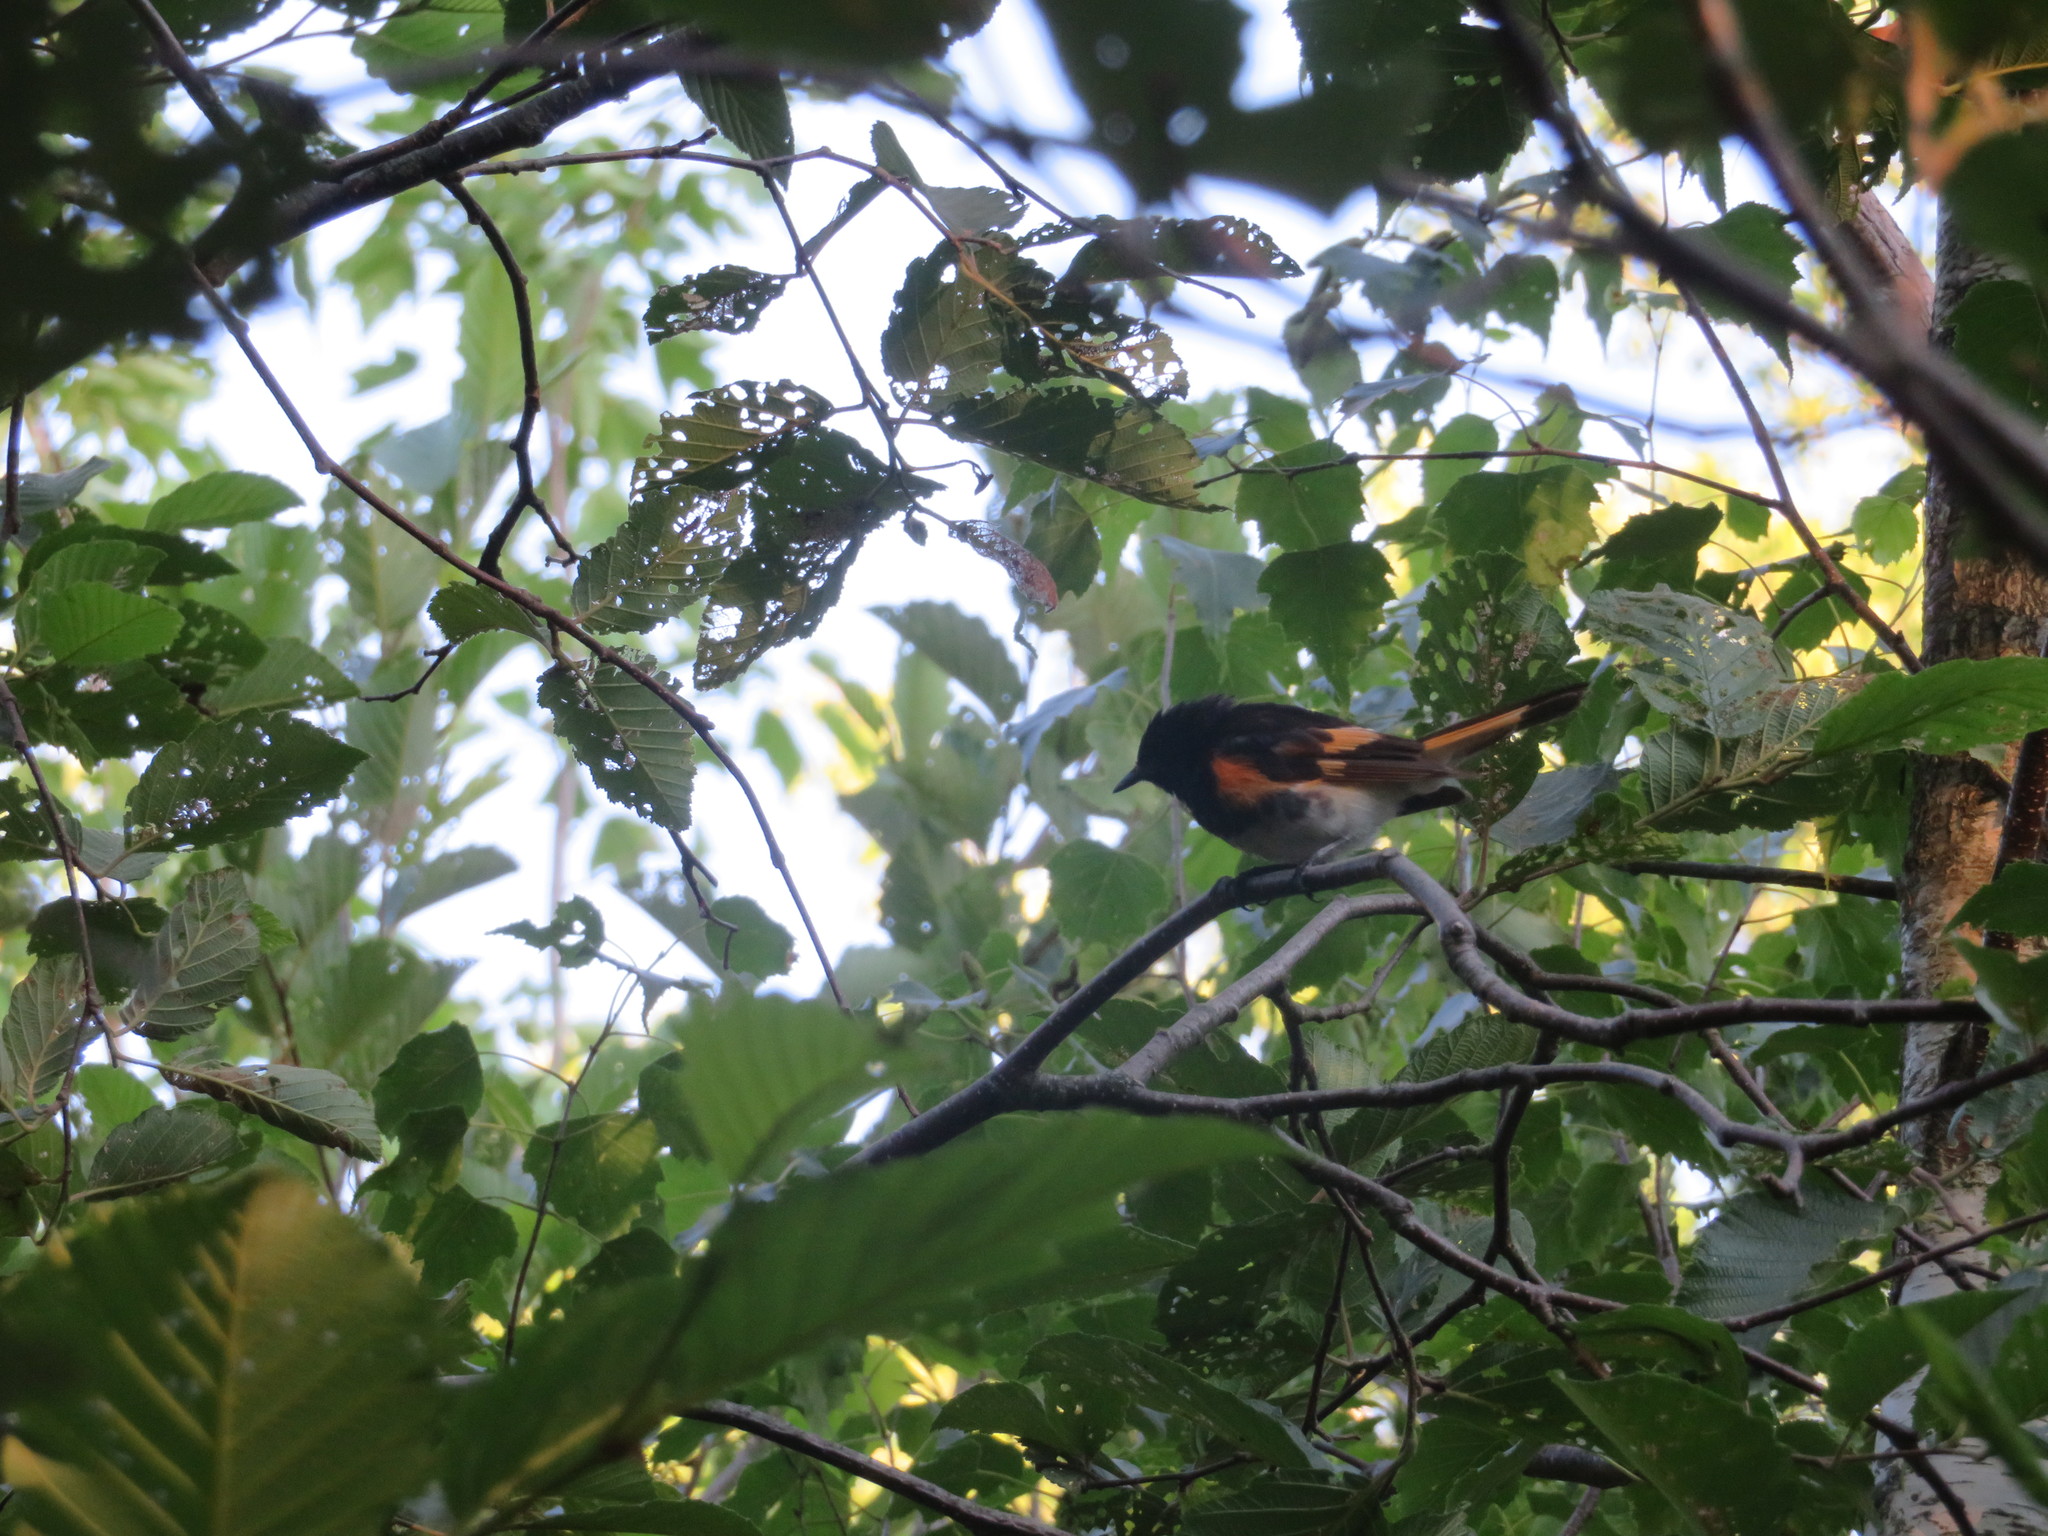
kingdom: Animalia
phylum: Chordata
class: Aves
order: Passeriformes
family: Parulidae
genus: Setophaga
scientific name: Setophaga ruticilla
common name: American redstart
